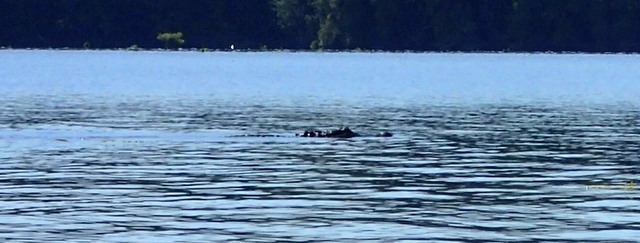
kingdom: Animalia
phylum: Chordata
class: Crocodylia
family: Alligatoridae
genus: Alligator
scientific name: Alligator mississippiensis
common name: American alligator
